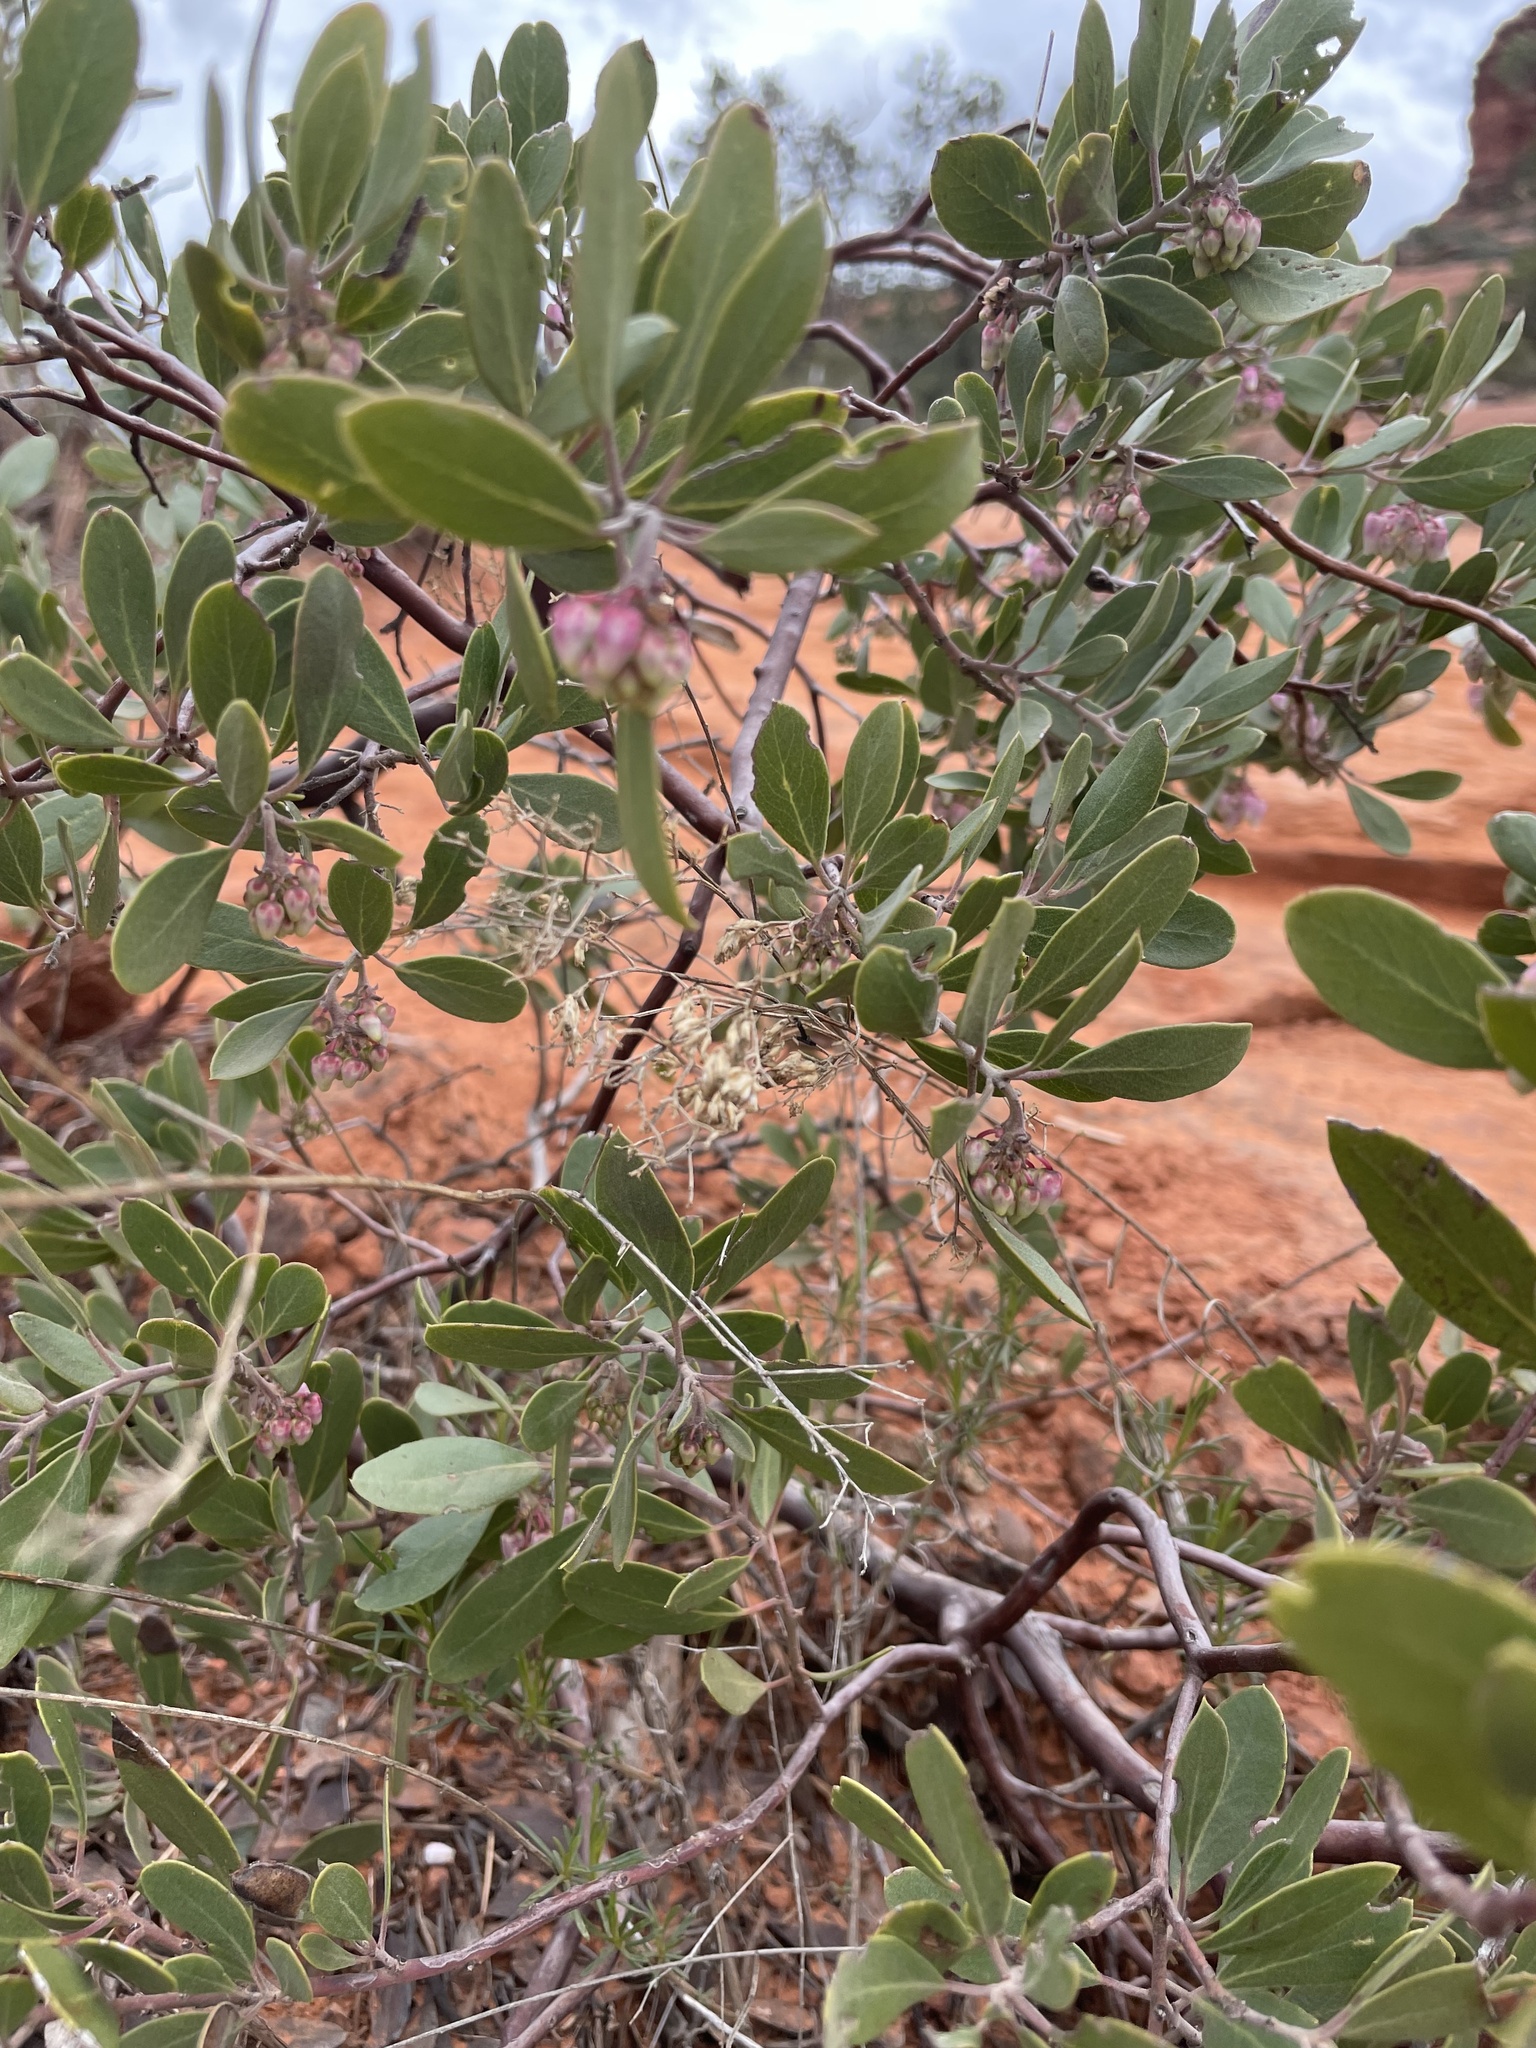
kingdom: Plantae
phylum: Tracheophyta
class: Magnoliopsida
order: Ericales
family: Ericaceae
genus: Arctostaphylos
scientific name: Arctostaphylos pungens
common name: Mexican manzanita
